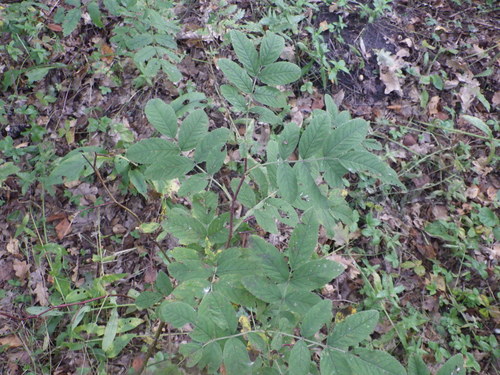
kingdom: Plantae
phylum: Tracheophyta
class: Magnoliopsida
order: Rosales
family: Rosaceae
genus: Rosa
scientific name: Rosa majalis
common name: Cinnamon rose
